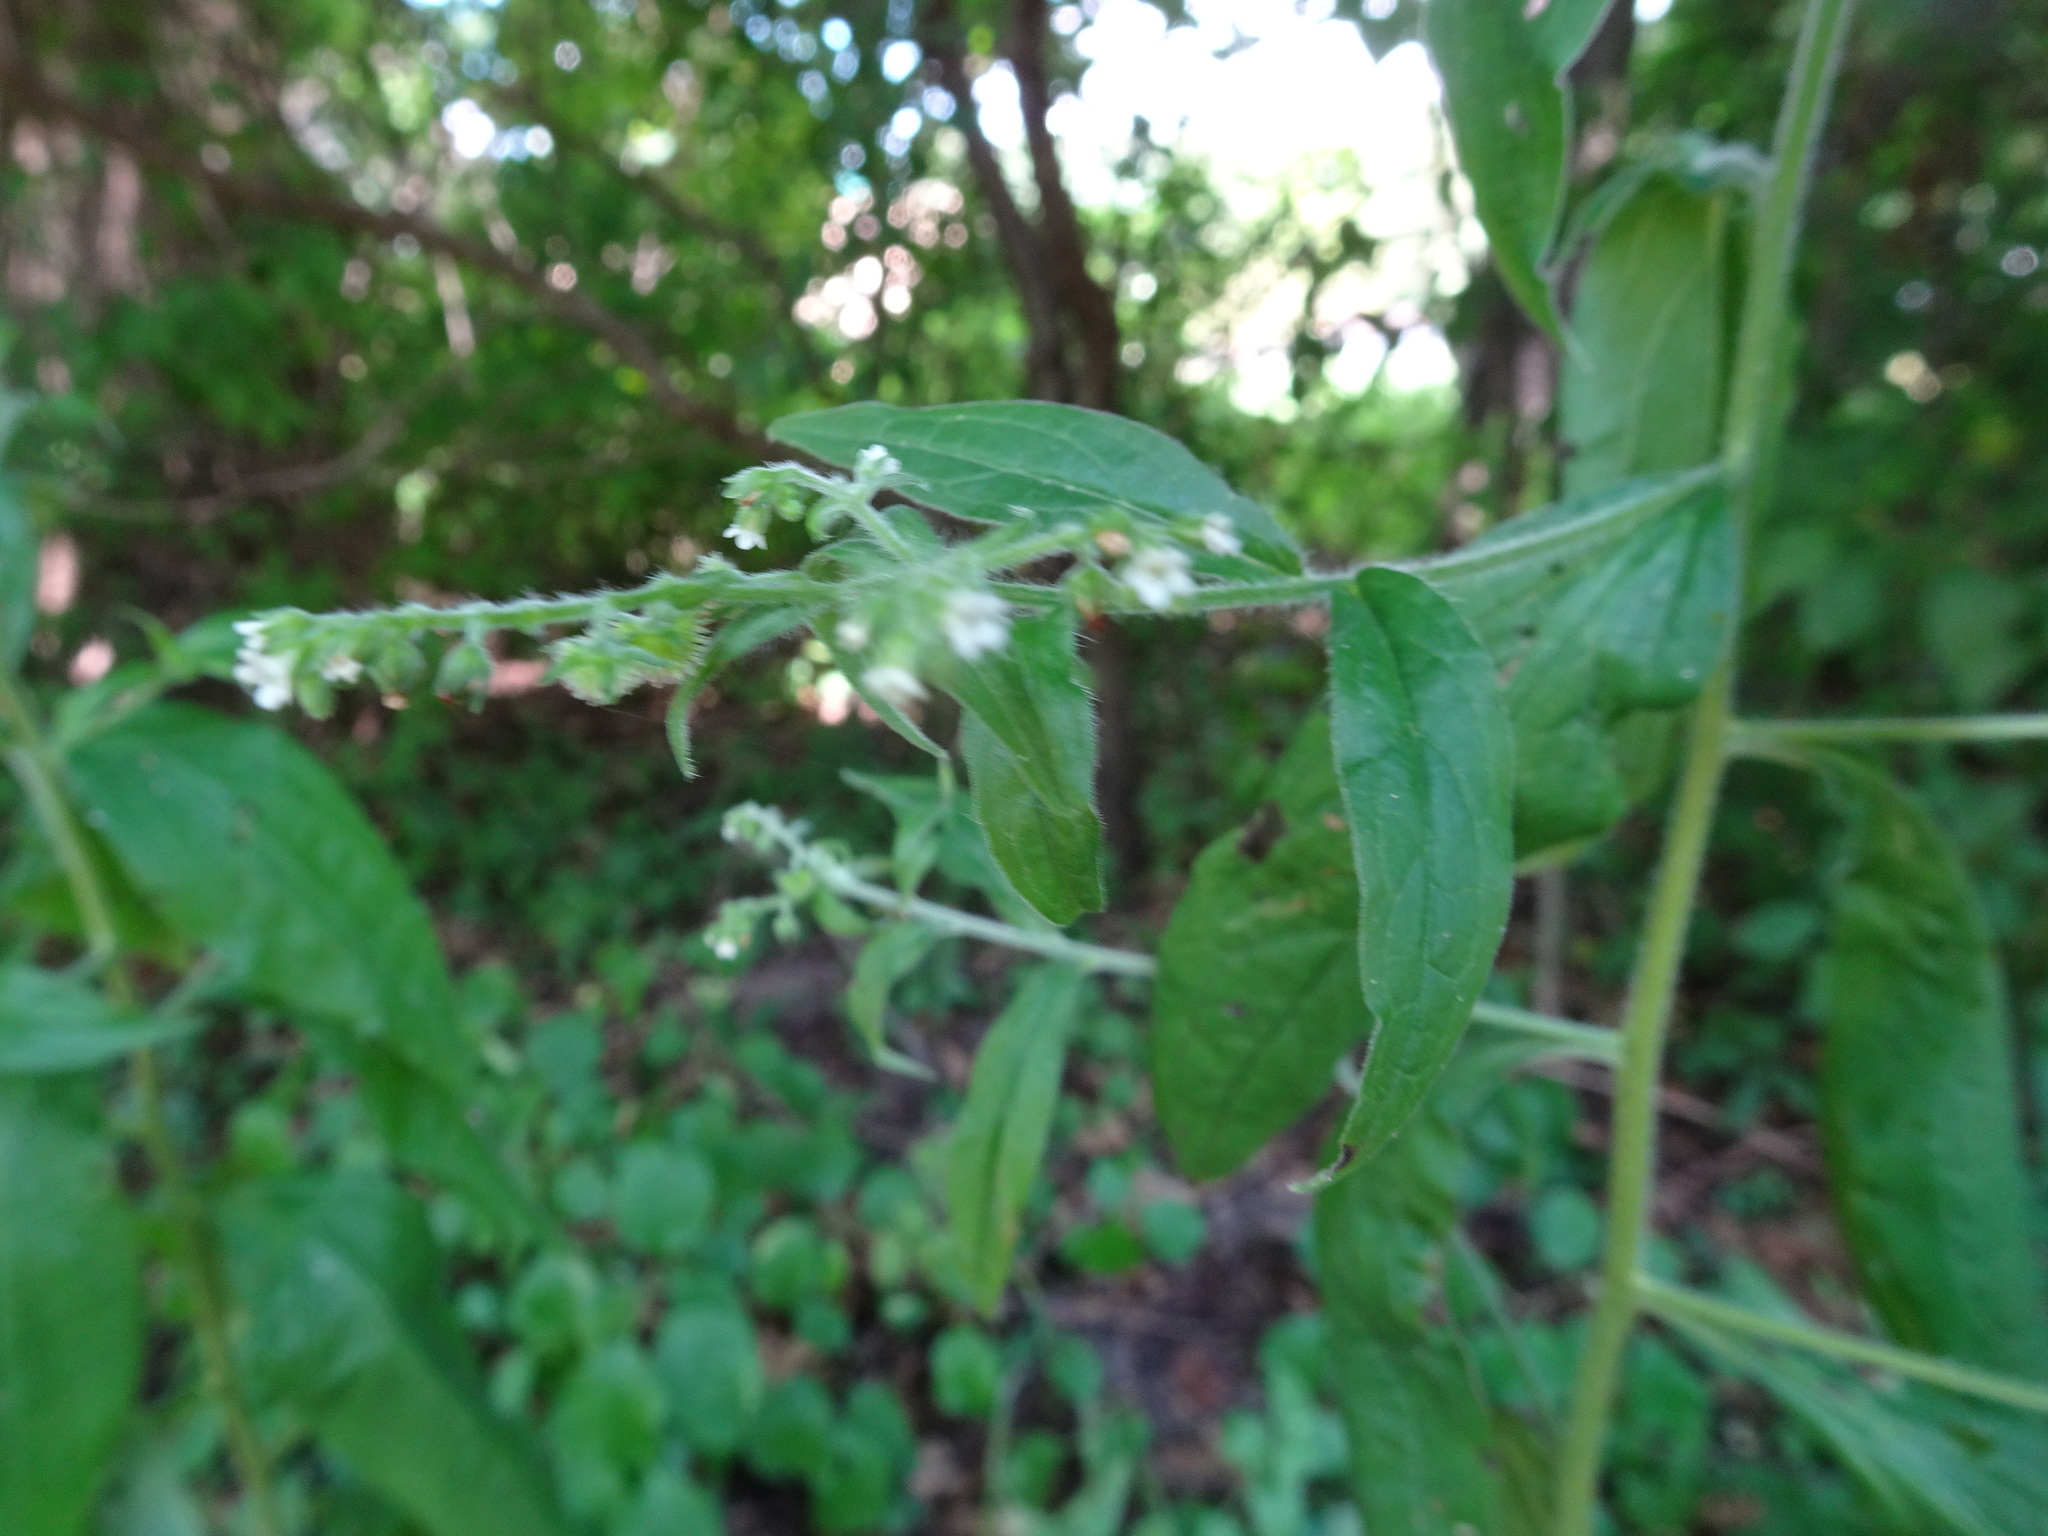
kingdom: Plantae
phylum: Tracheophyta
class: Magnoliopsida
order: Boraginales
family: Boraginaceae
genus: Hackelia
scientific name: Hackelia virginiana
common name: Beggar's-lice
